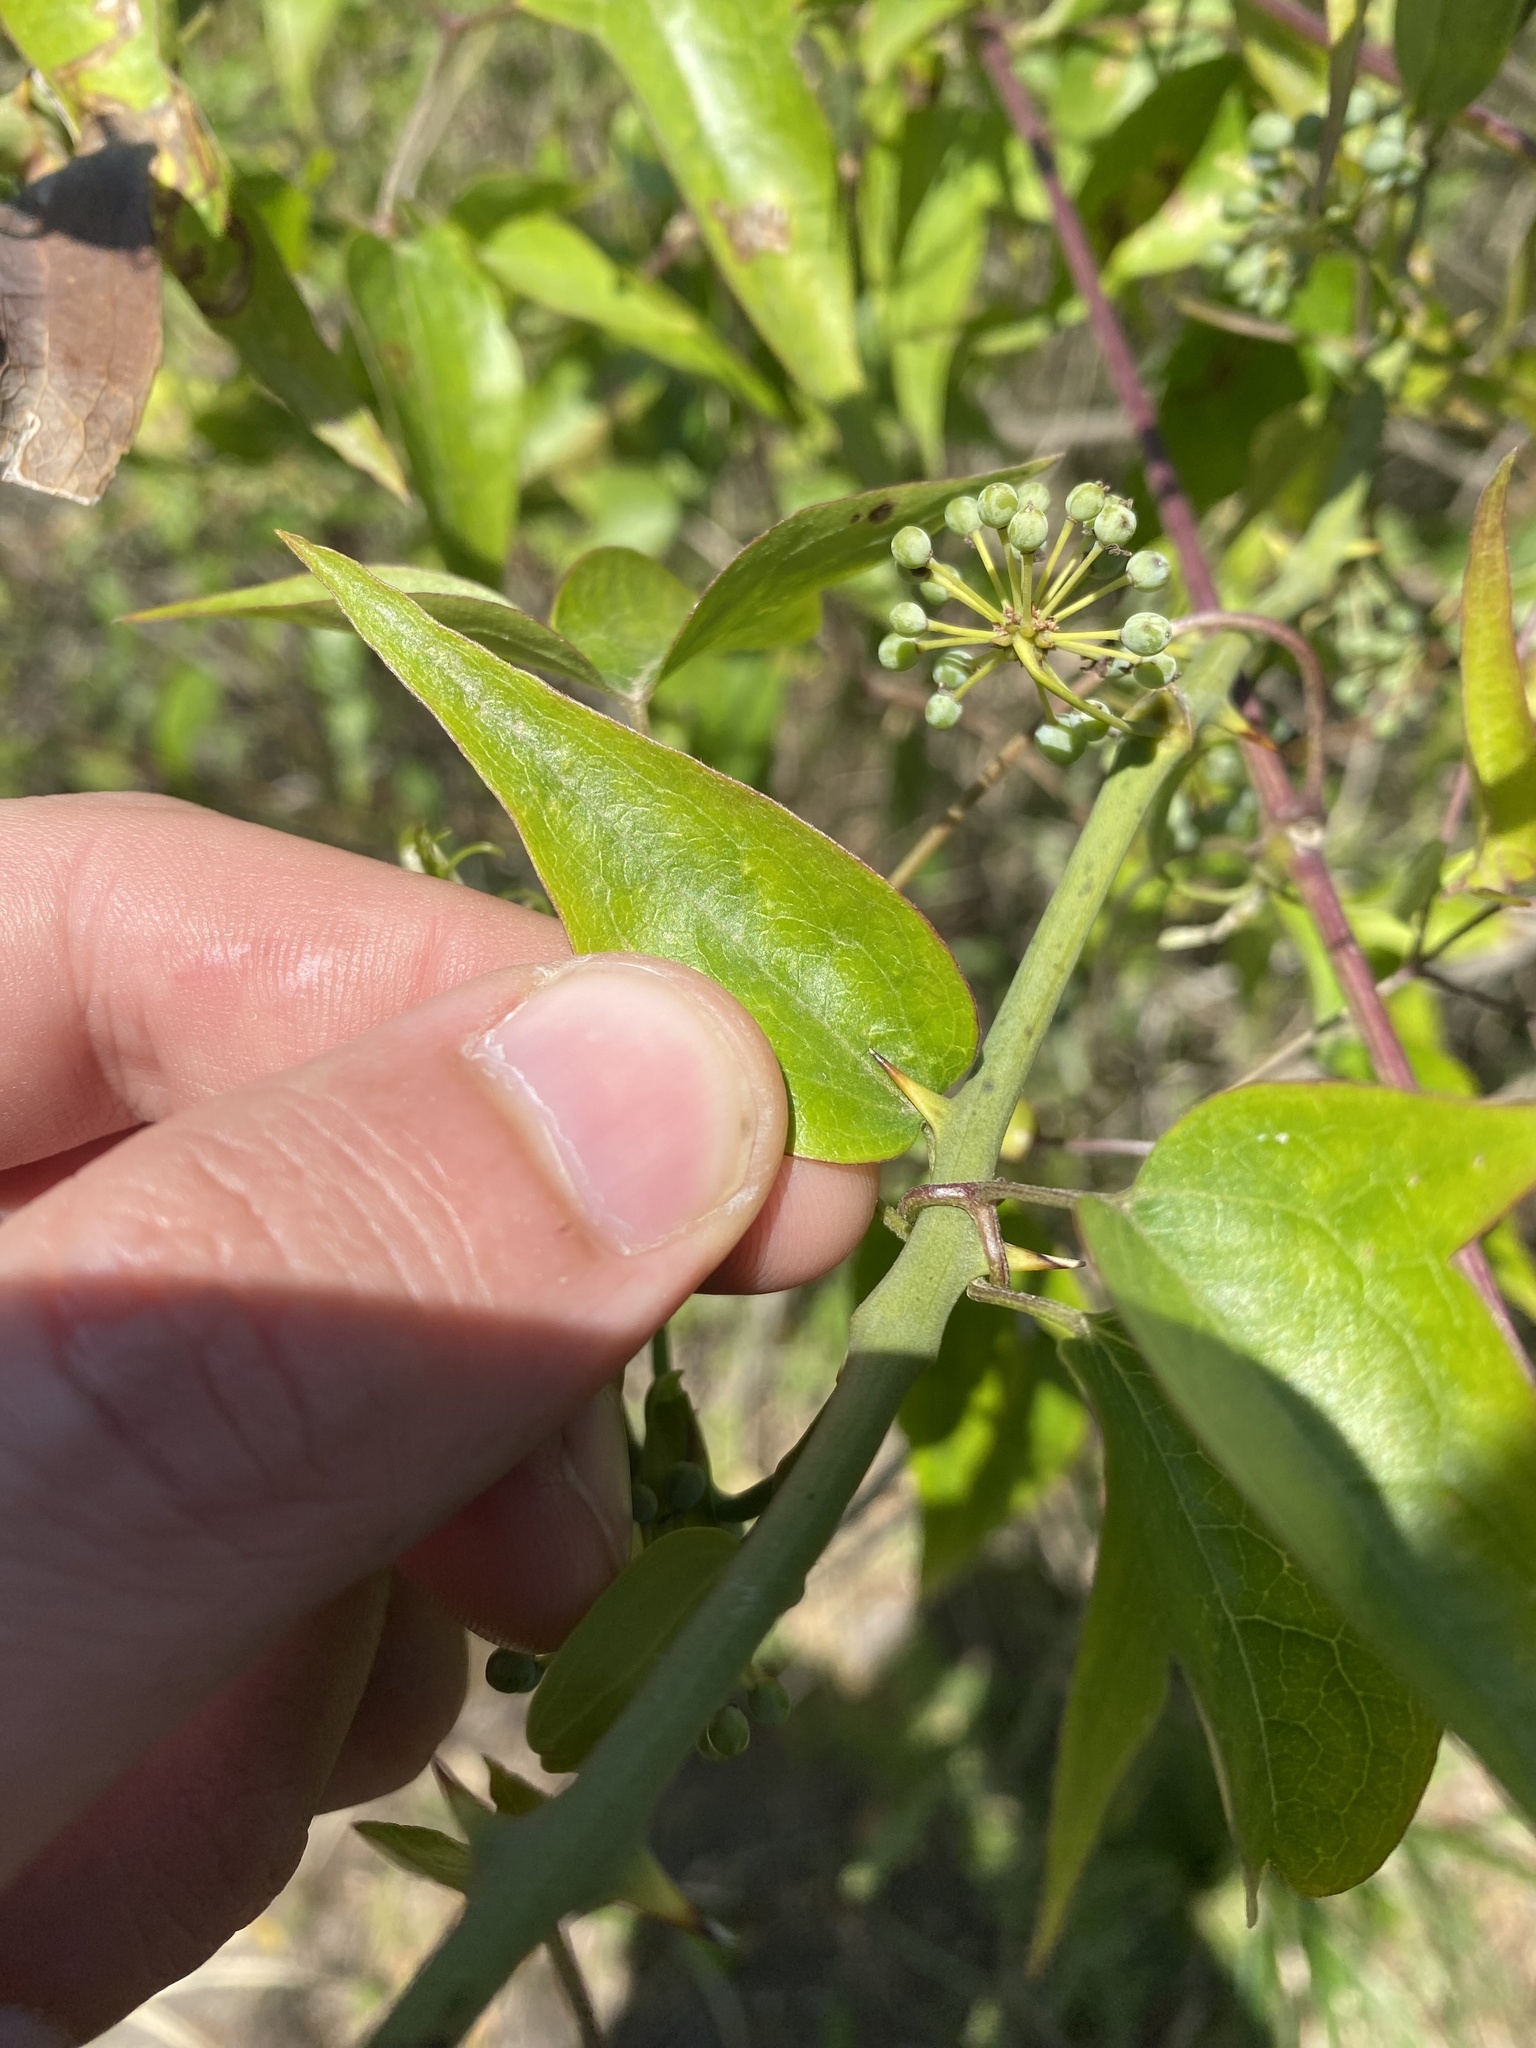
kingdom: Plantae
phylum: Tracheophyta
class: Liliopsida
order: Liliales
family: Smilacaceae
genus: Smilax
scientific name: Smilax campestris
